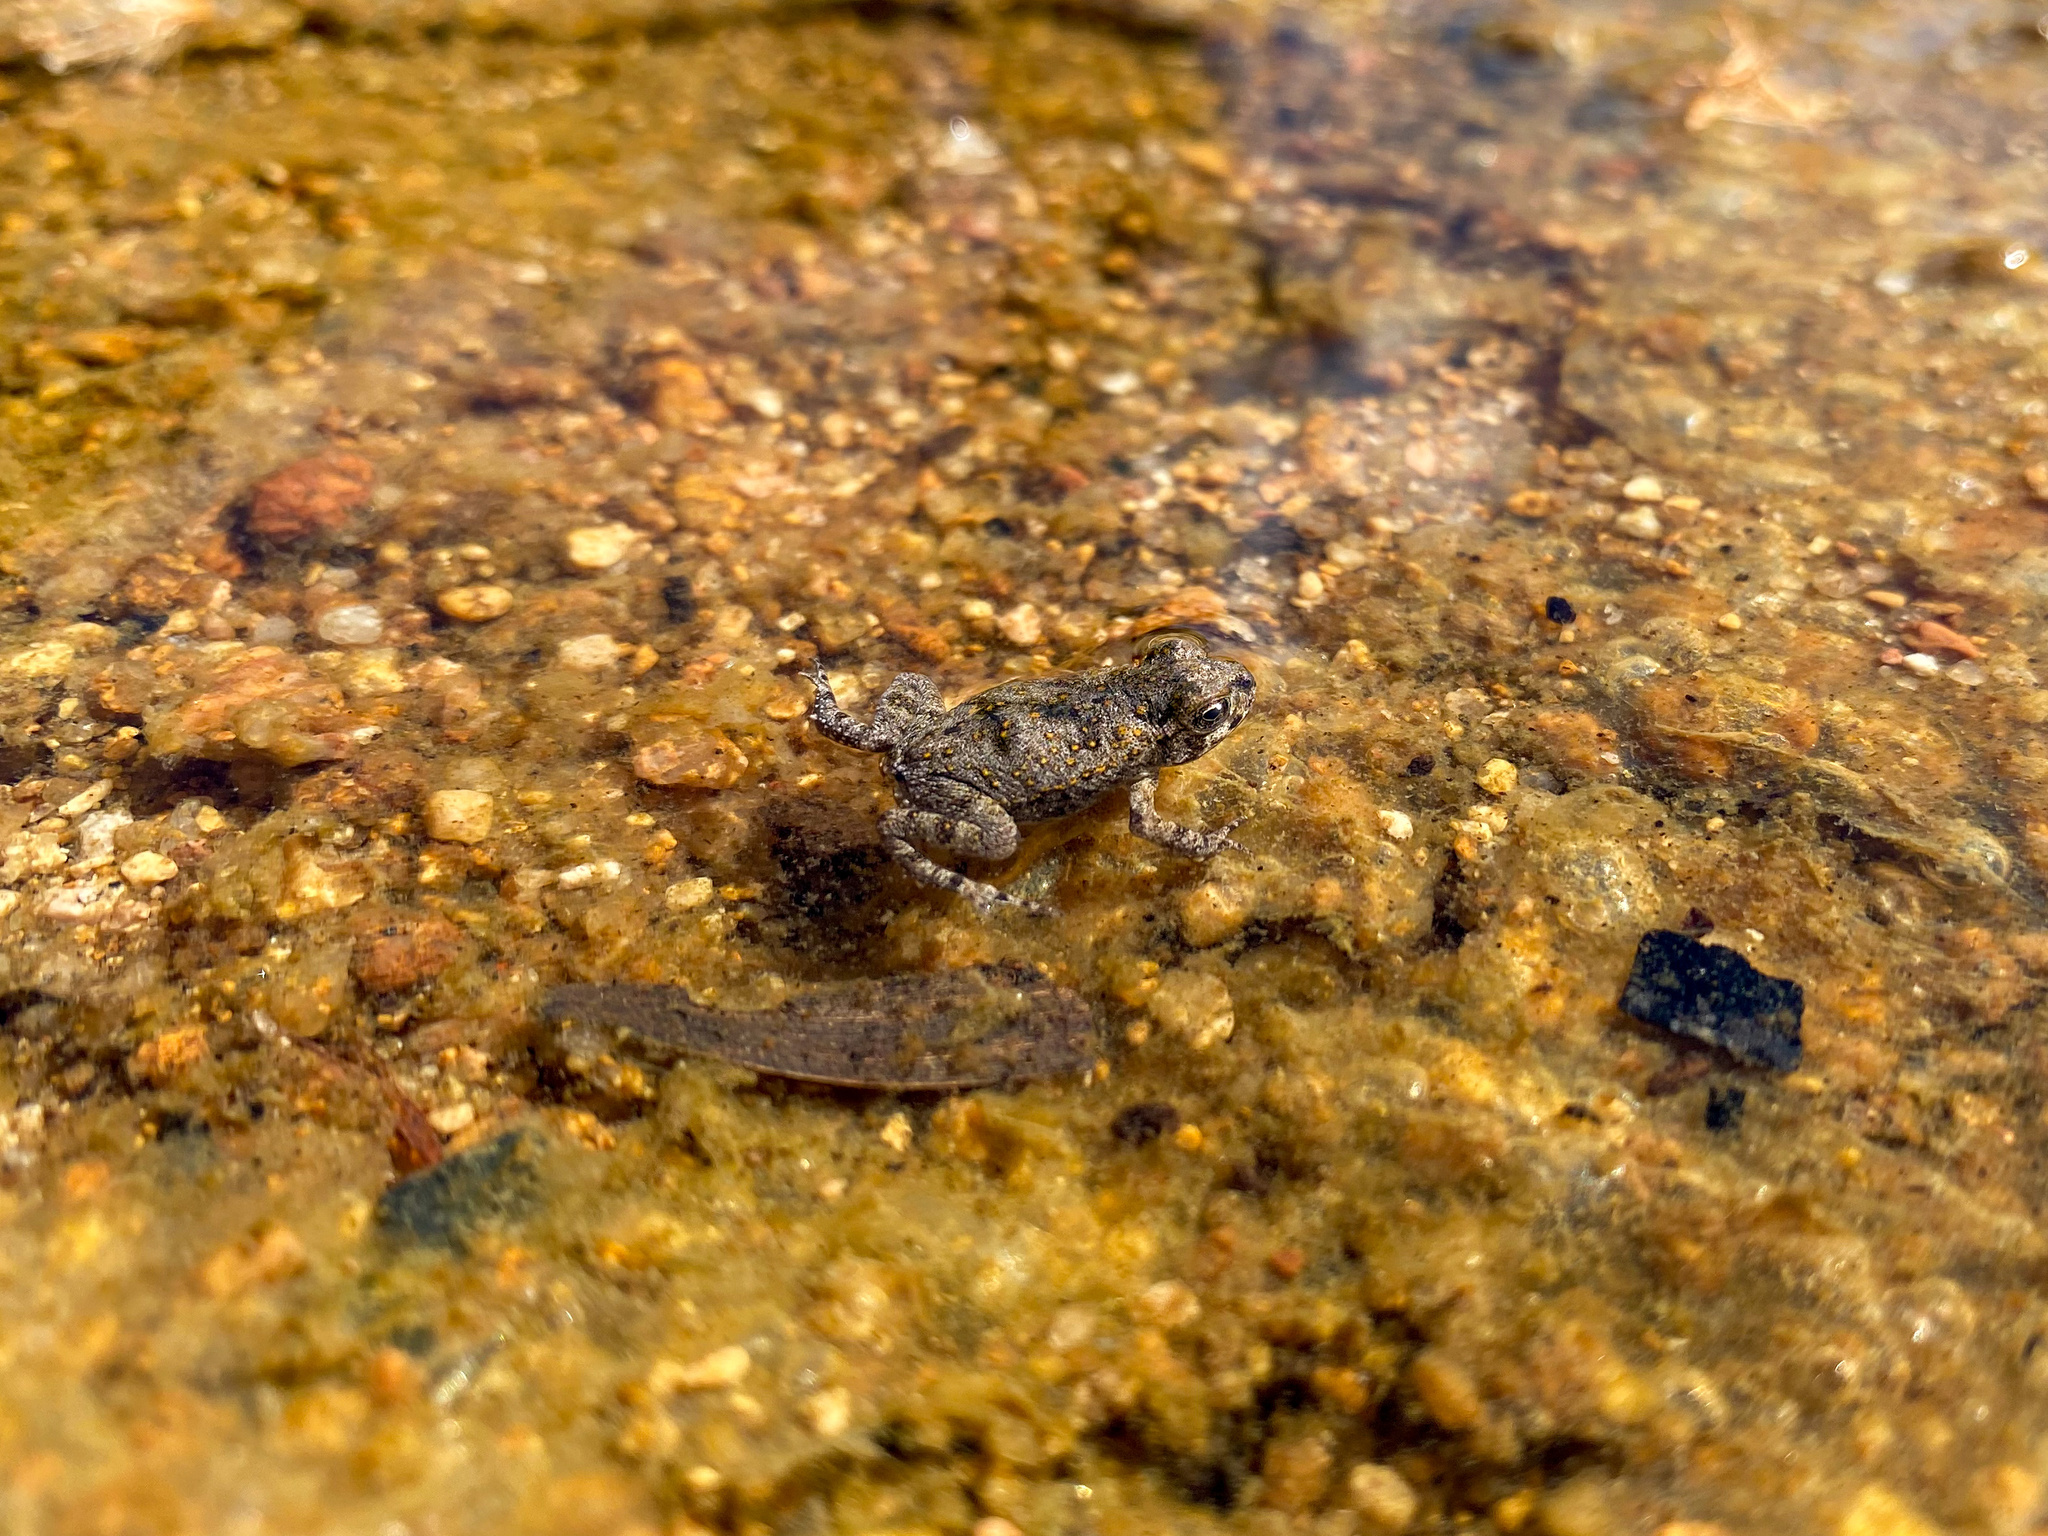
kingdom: Animalia
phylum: Chordata
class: Amphibia
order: Anura
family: Bufonidae
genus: Rhinella
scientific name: Rhinella marina
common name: Cane toad
